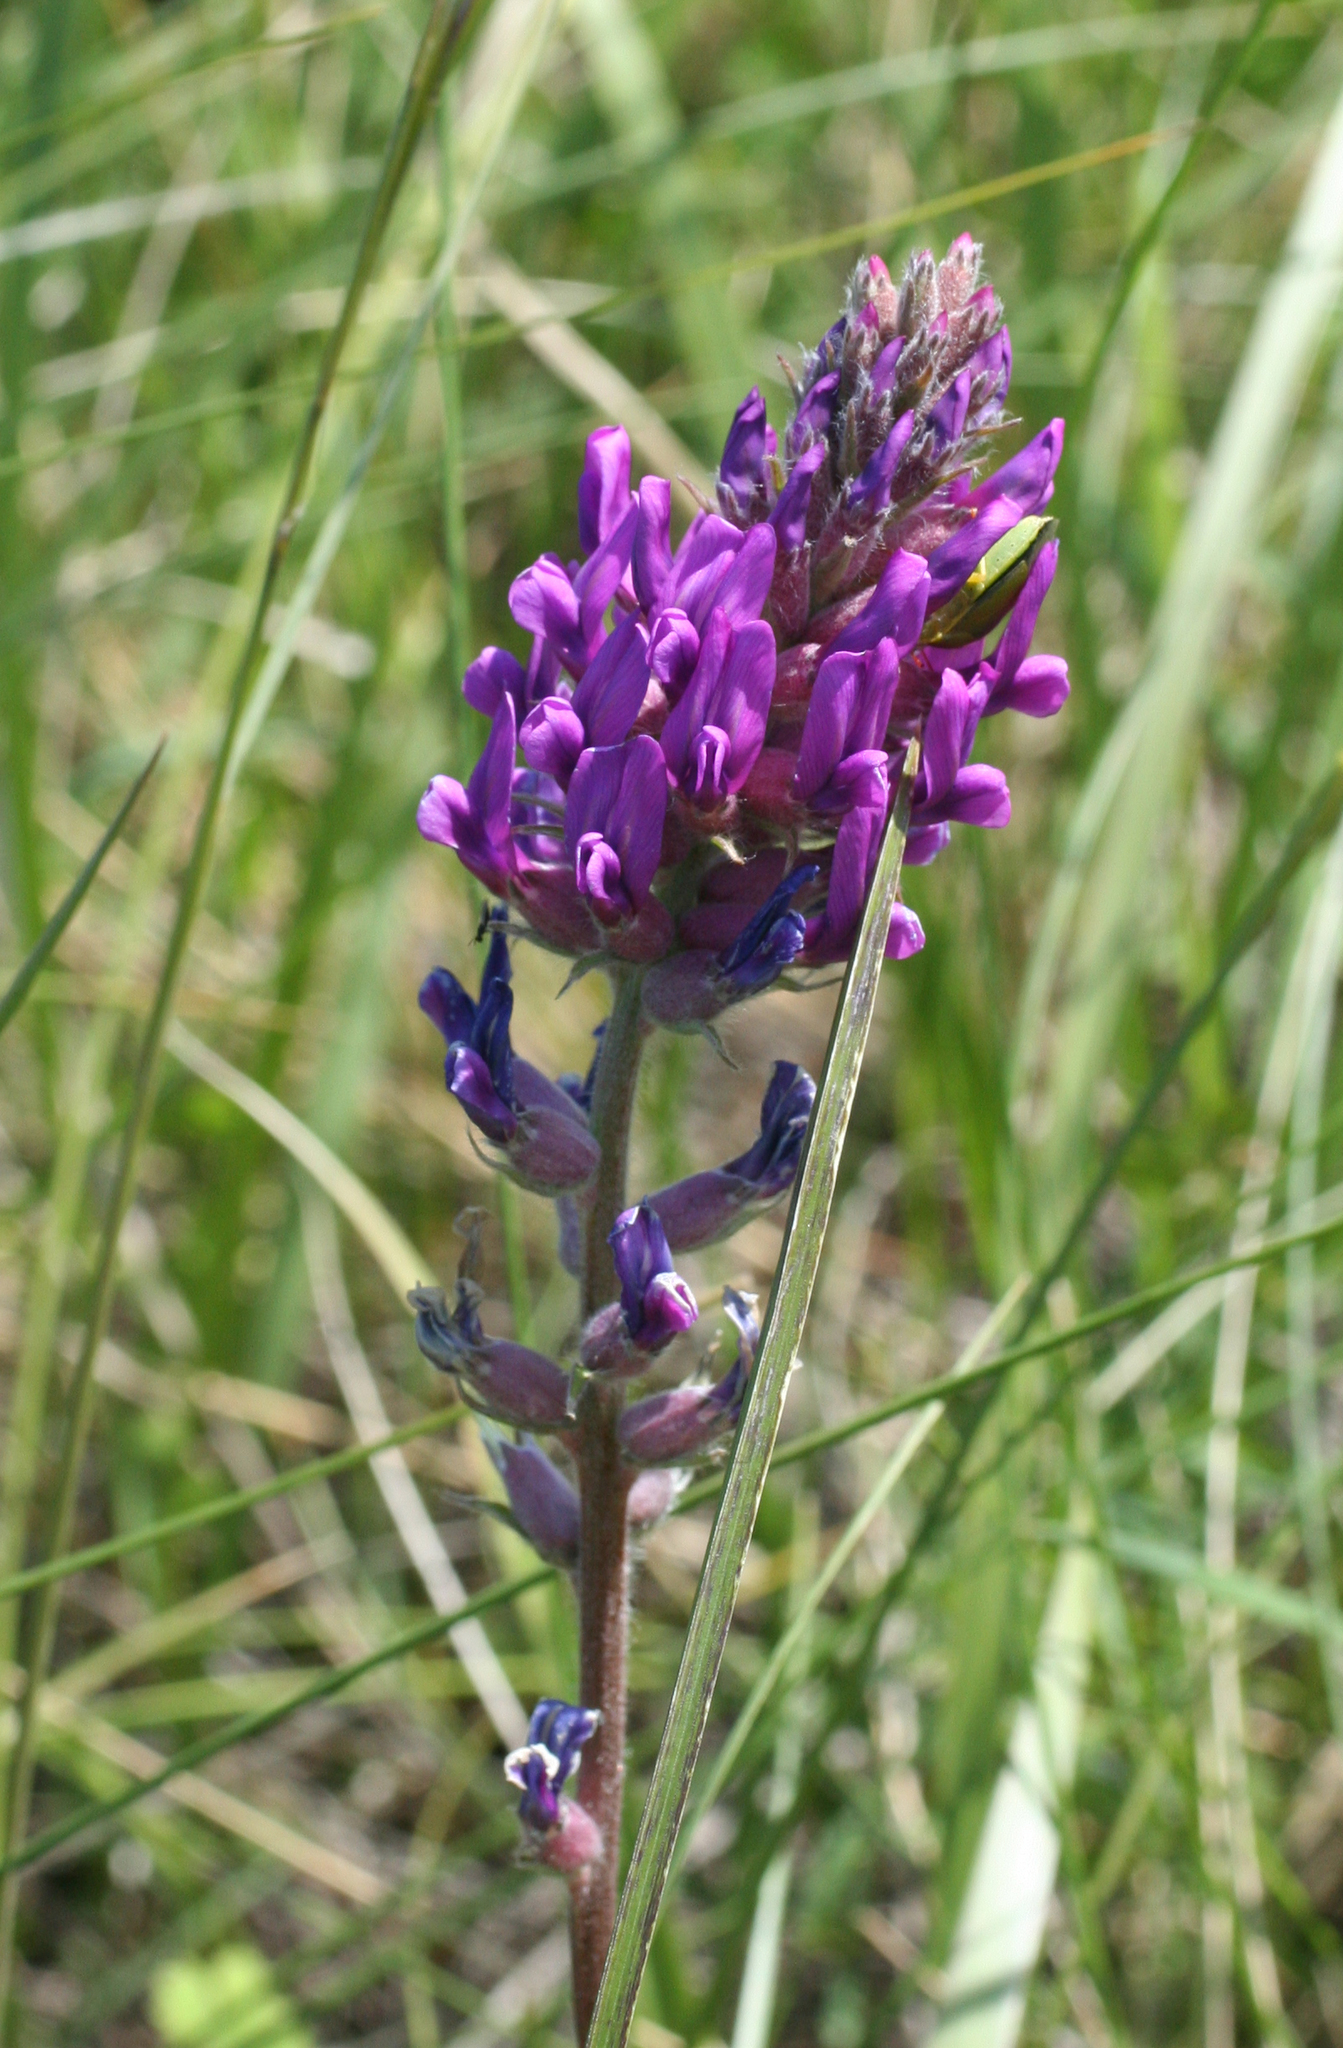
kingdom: Plantae
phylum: Tracheophyta
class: Magnoliopsida
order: Fabales
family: Fabaceae
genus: Oxytropis
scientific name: Oxytropis campanulata
